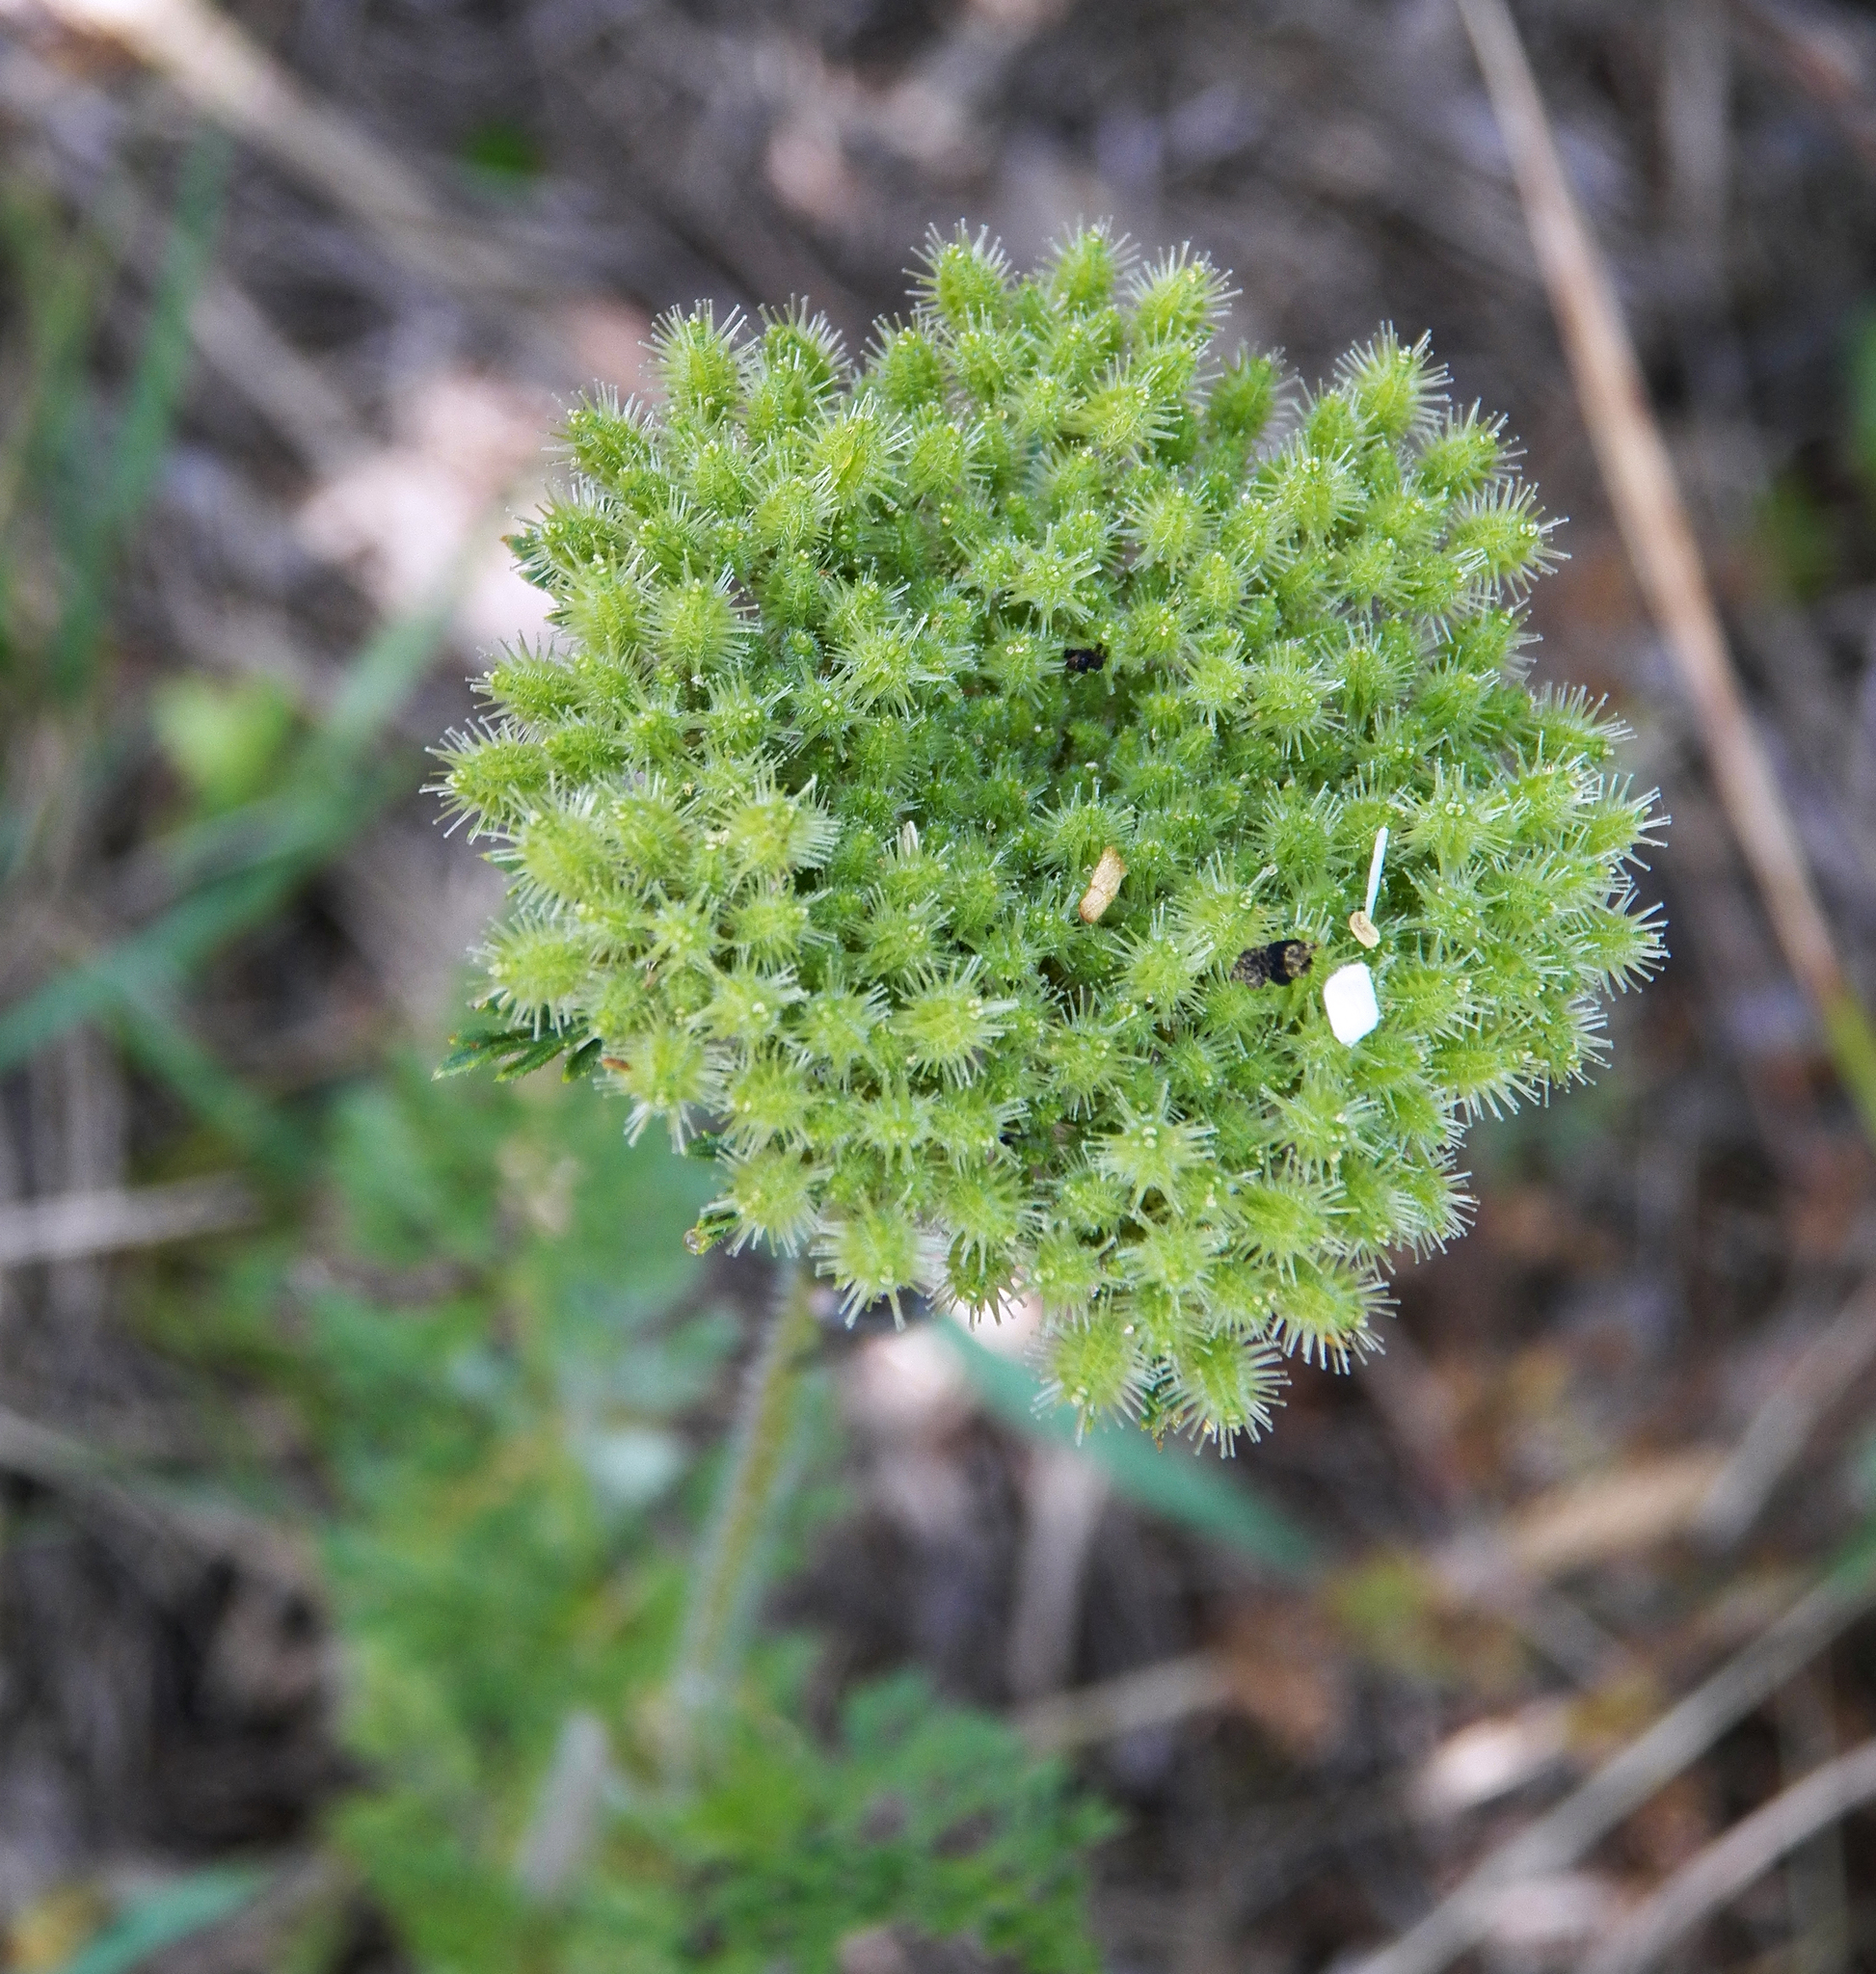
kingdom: Plantae
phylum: Tracheophyta
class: Magnoliopsida
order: Apiales
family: Apiaceae
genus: Daucus
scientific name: Daucus pusillus
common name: Southwest wild carrot
